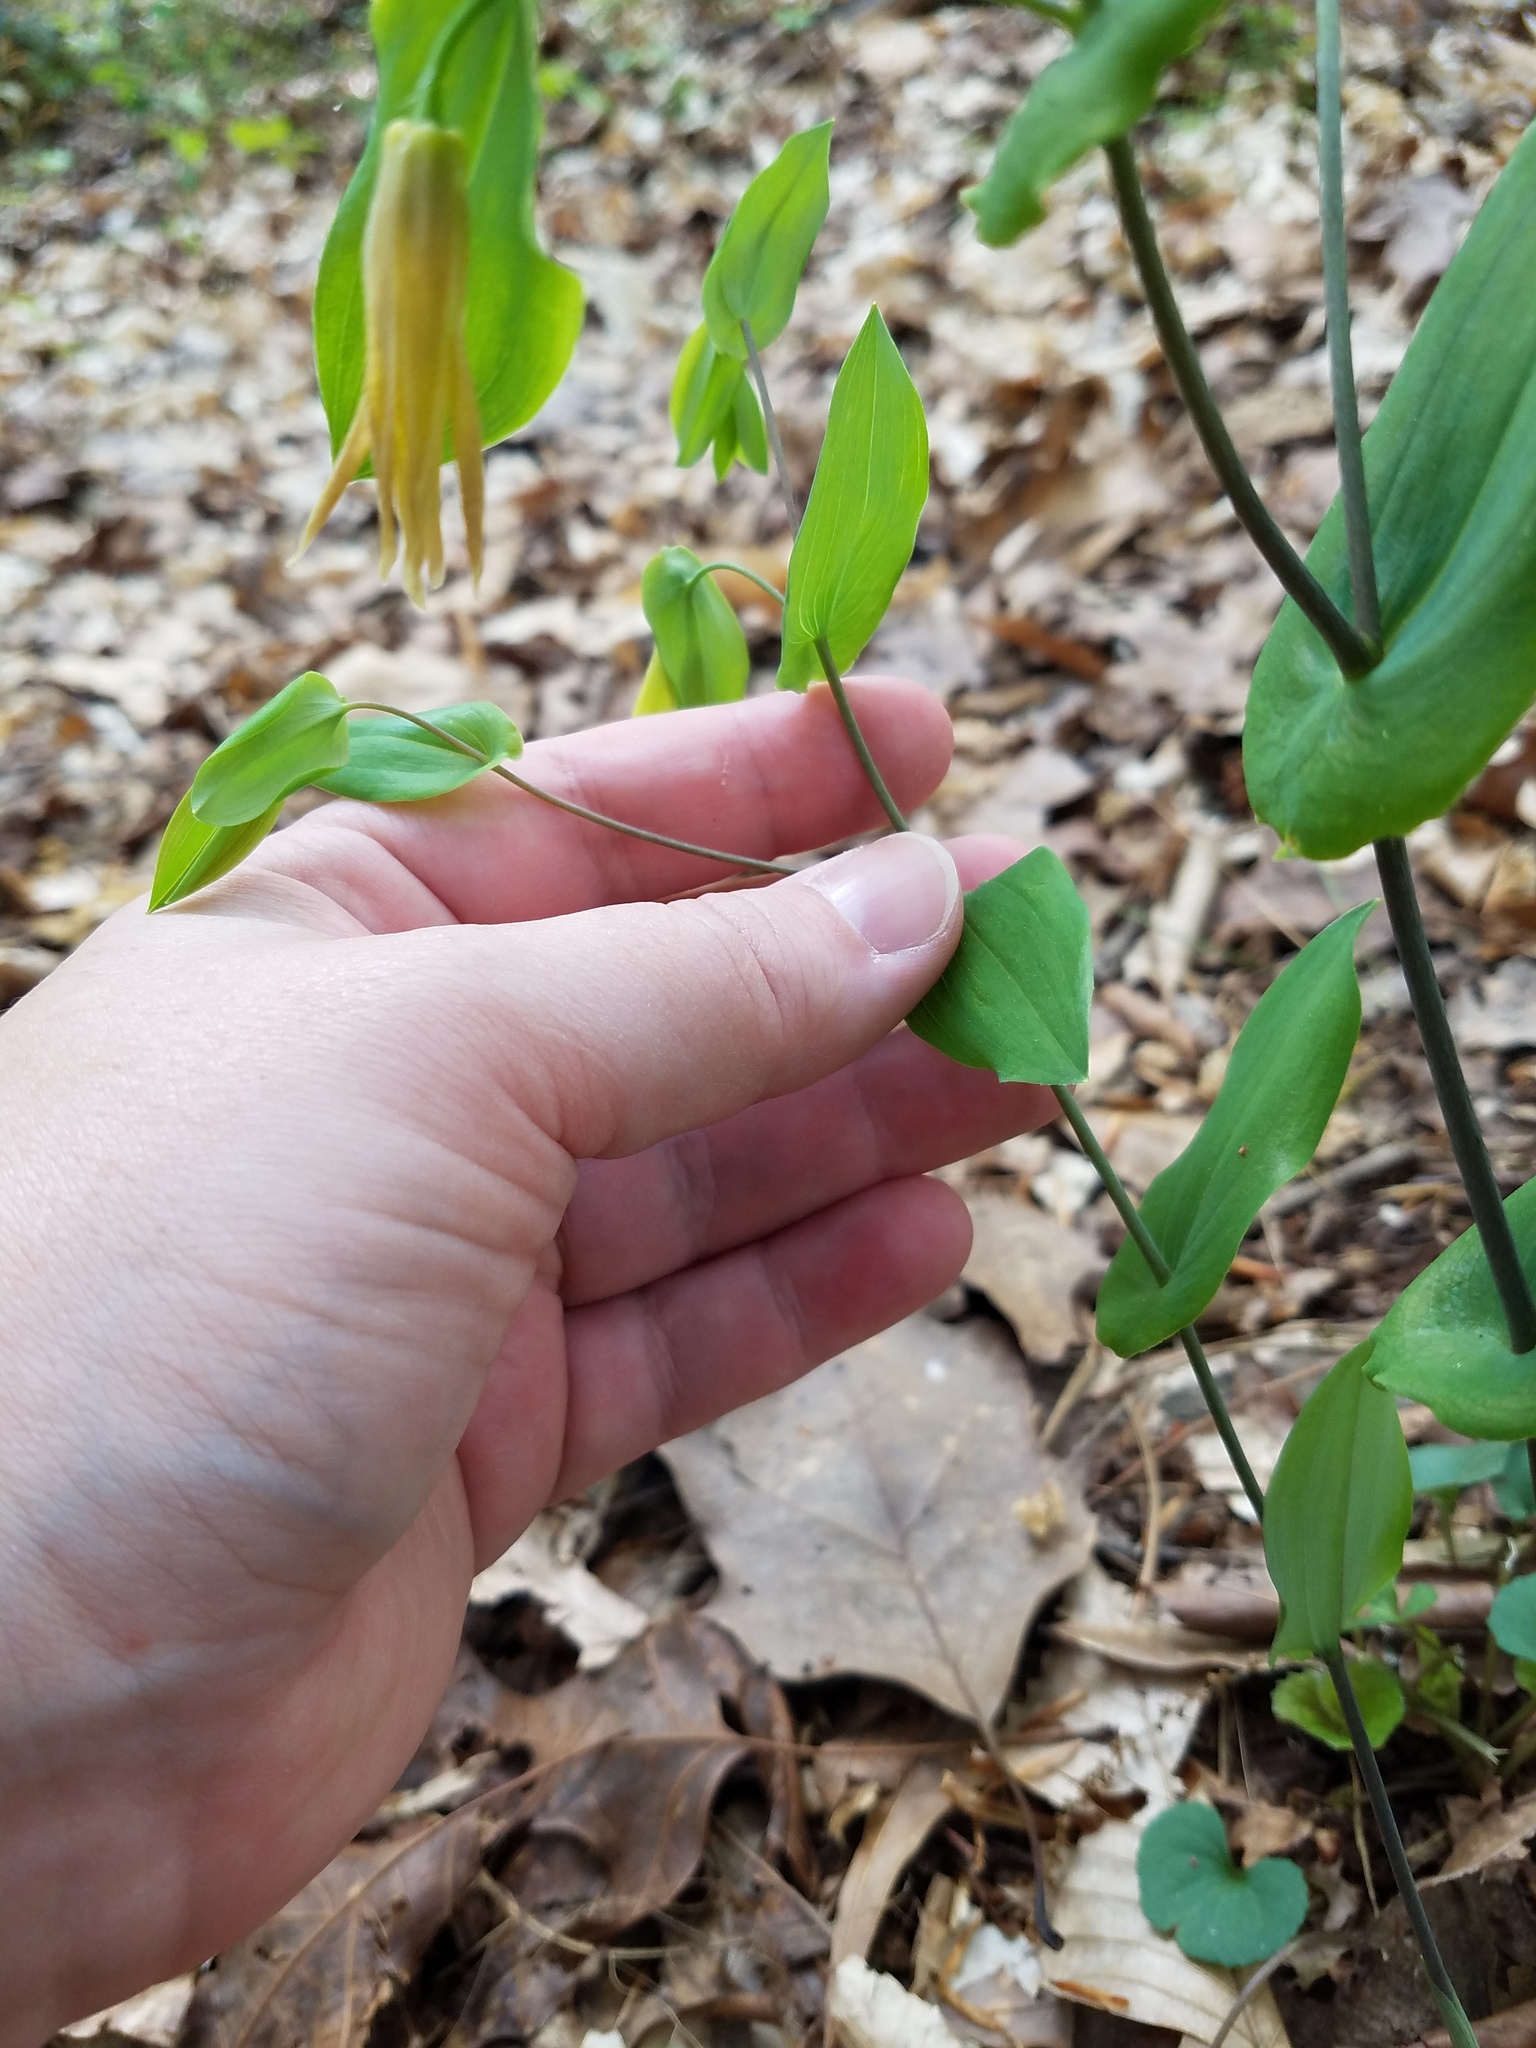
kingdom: Plantae
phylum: Tracheophyta
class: Liliopsida
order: Liliales
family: Colchicaceae
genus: Uvularia
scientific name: Uvularia perfoliata
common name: Perfoliate bellwort
